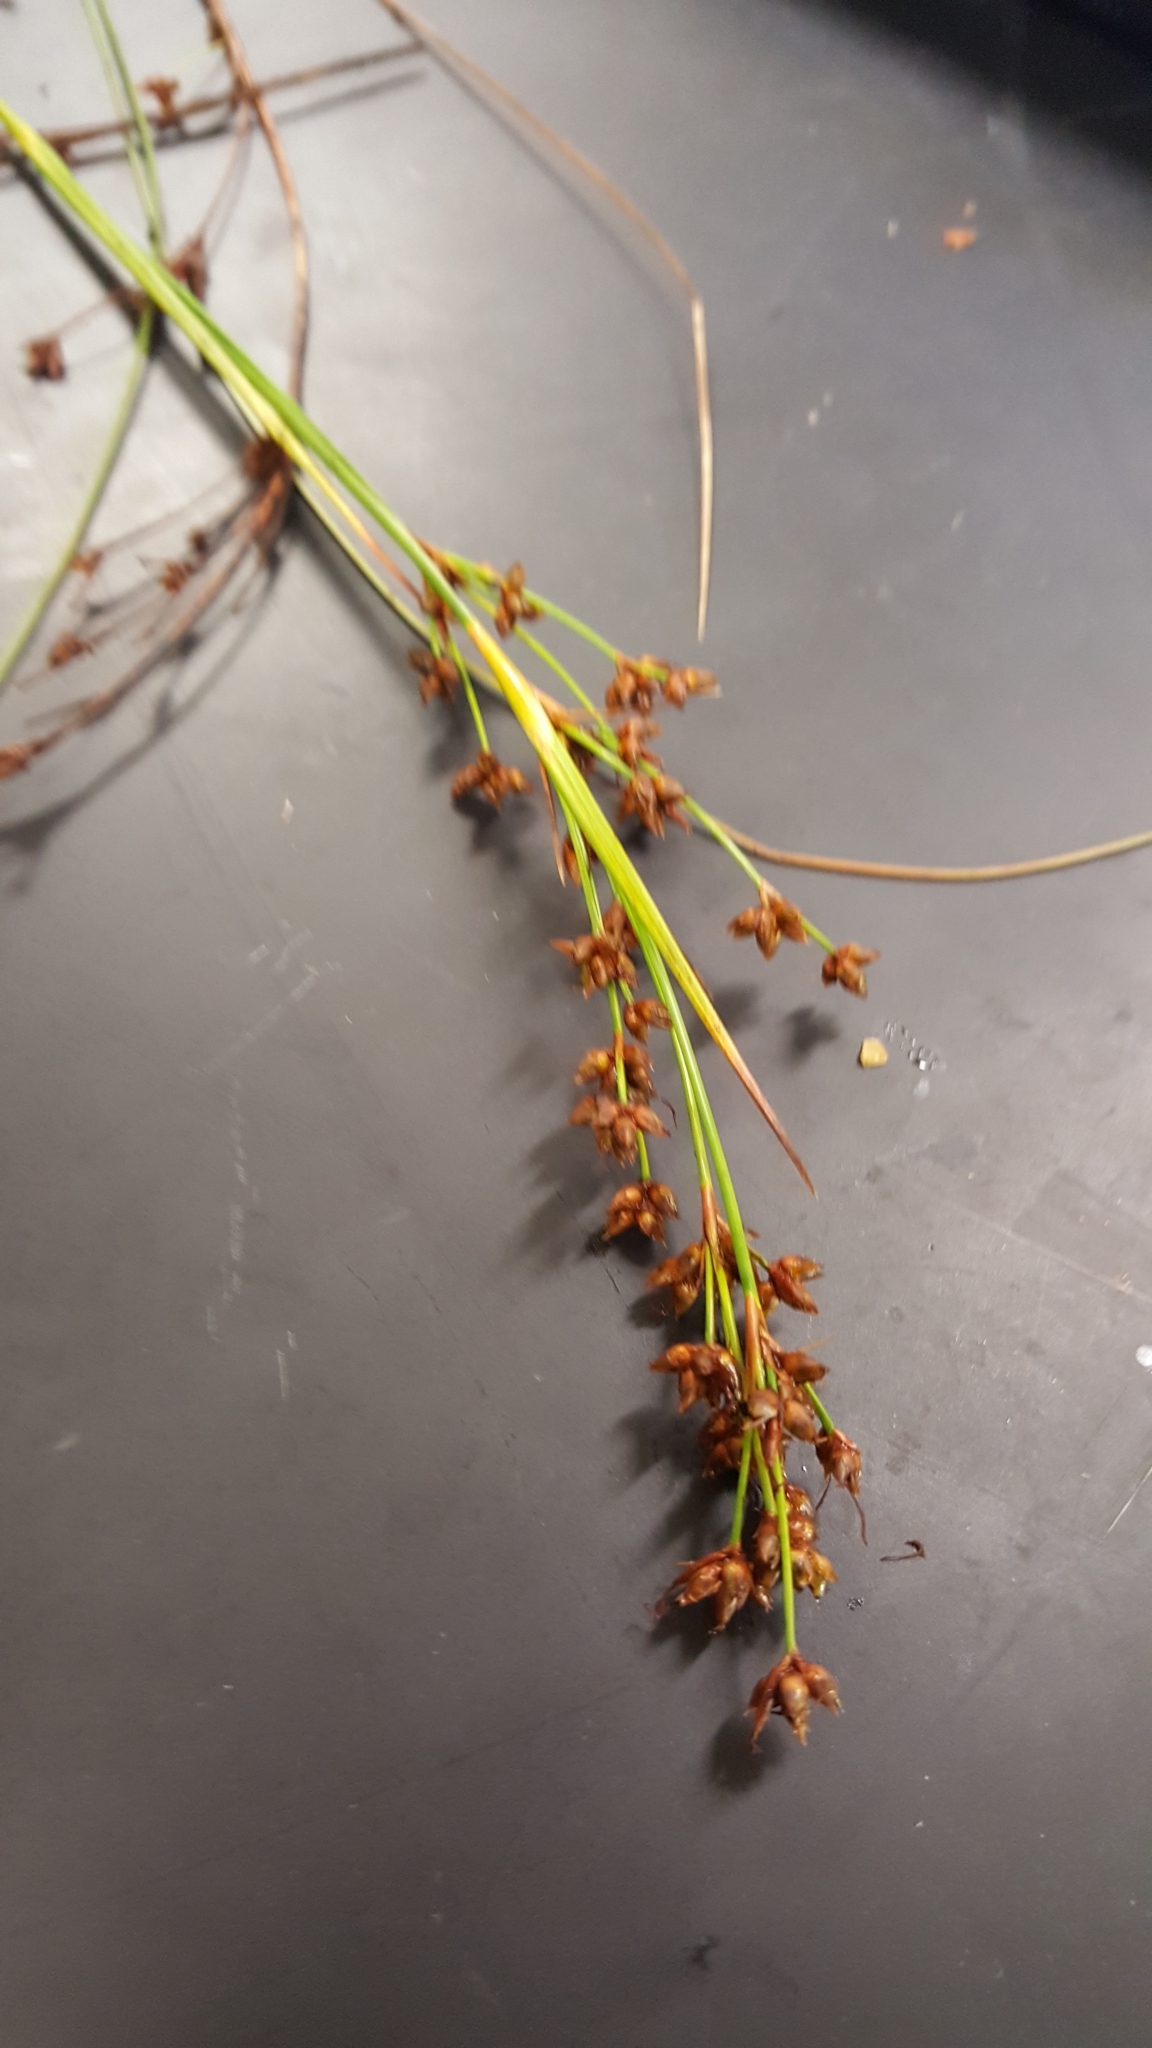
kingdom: Plantae
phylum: Tracheophyta
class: Liliopsida
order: Poales
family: Cyperaceae
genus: Cladium
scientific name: Cladium mariscoides
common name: Smooth sawgrass
